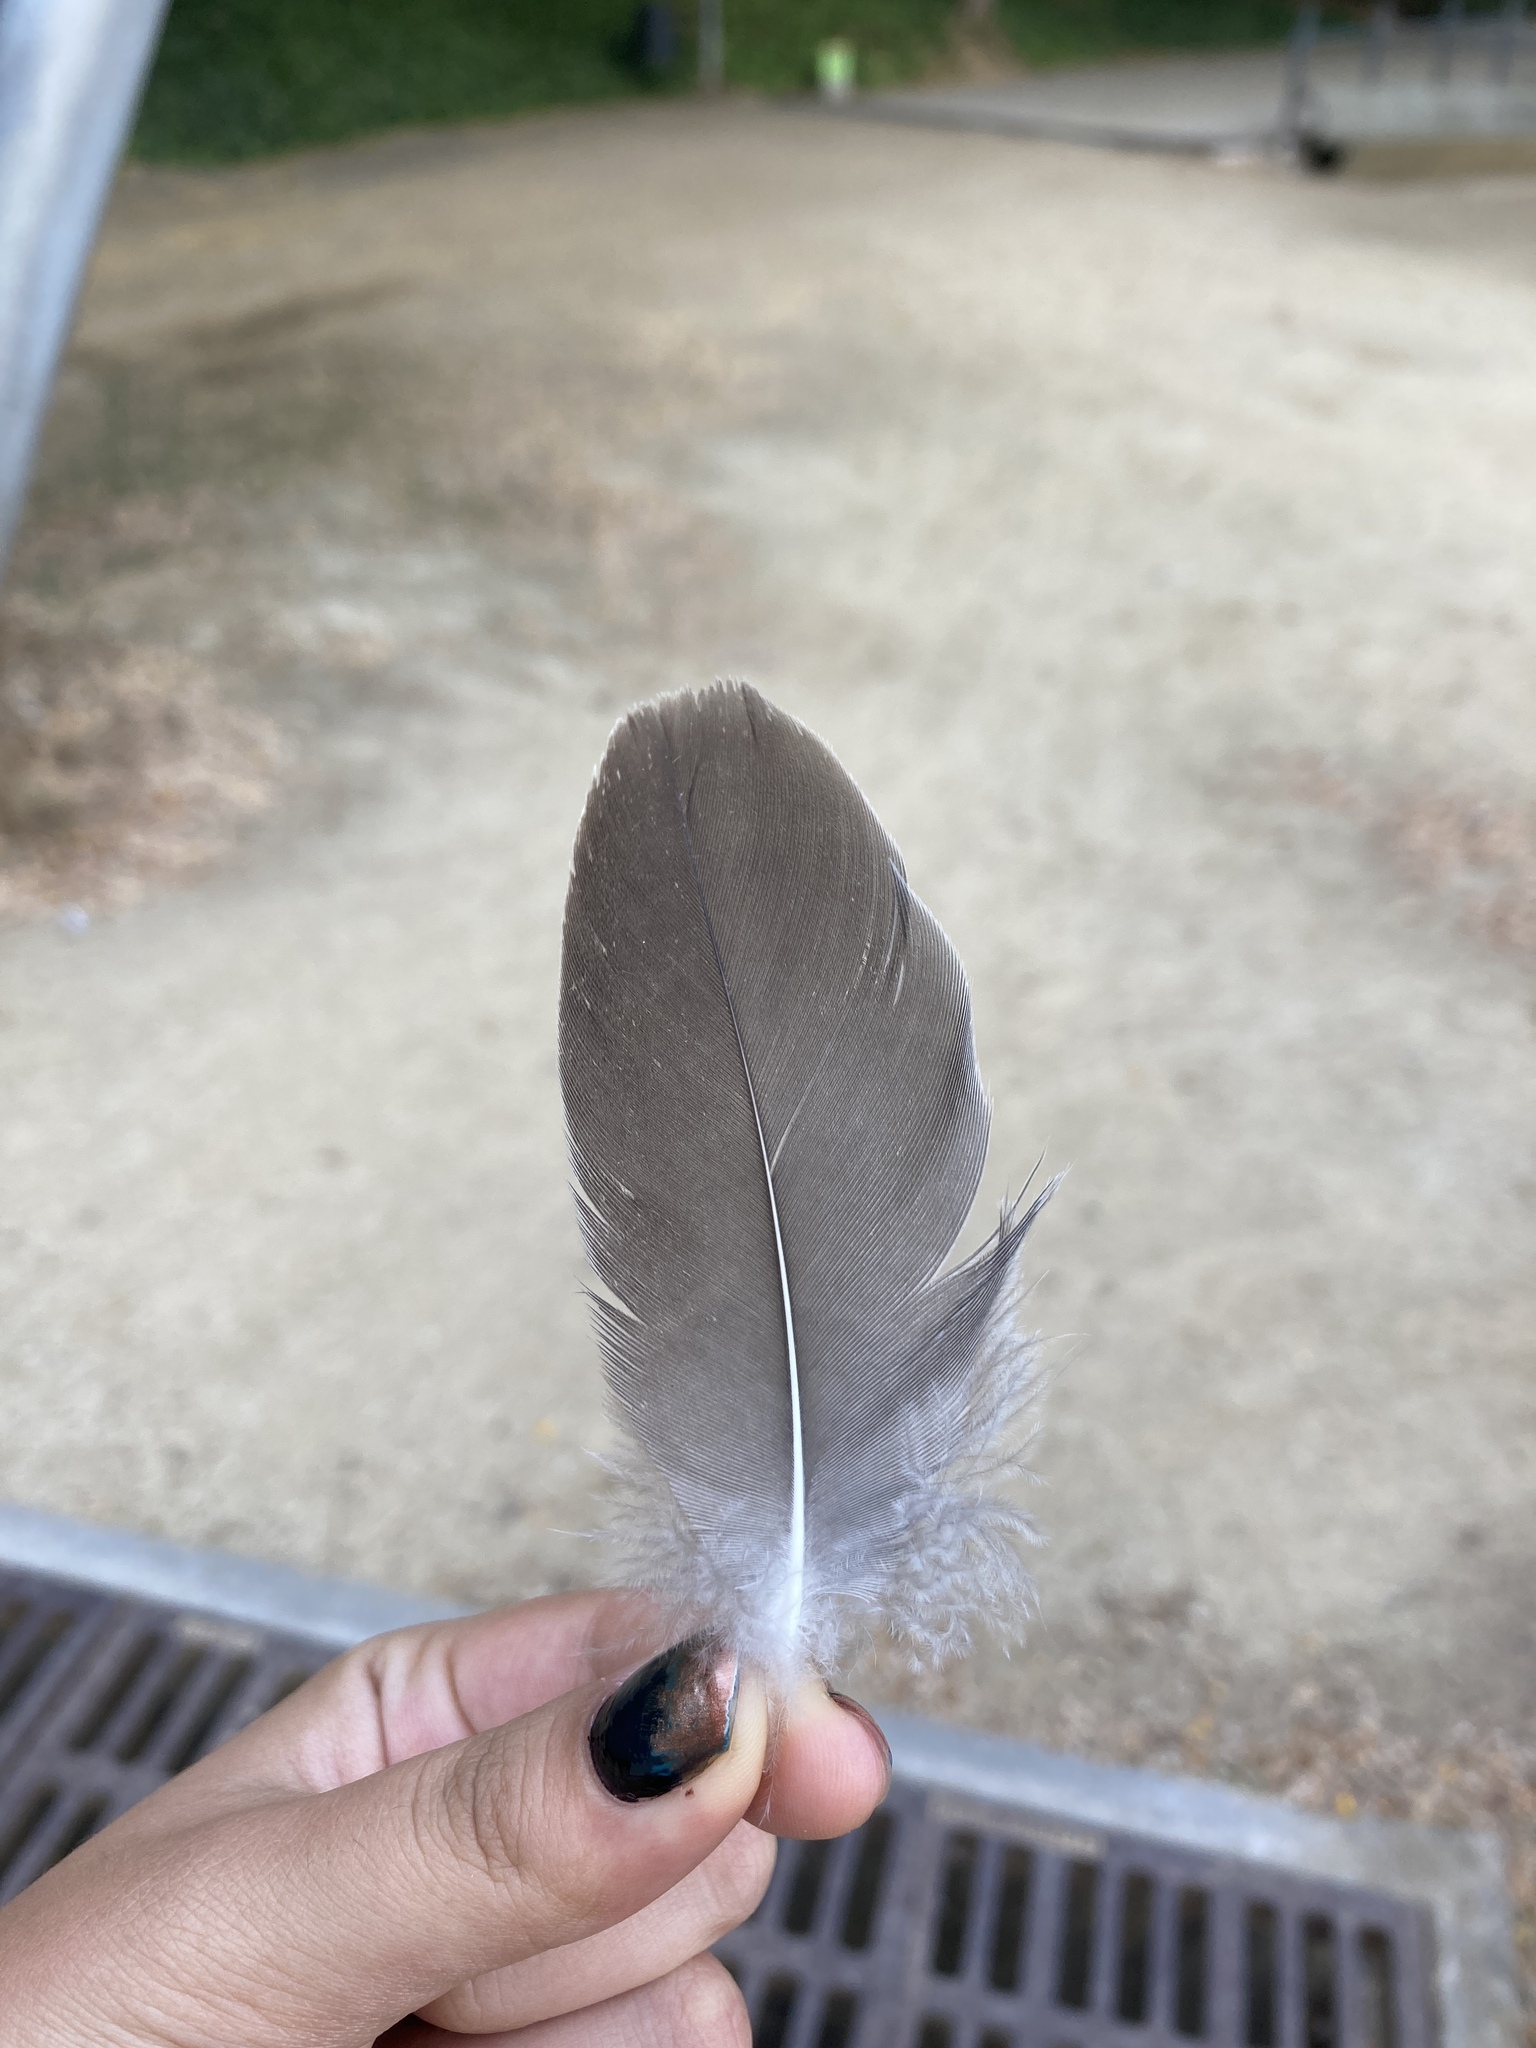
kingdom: Animalia
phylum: Chordata
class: Aves
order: Anseriformes
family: Anatidae
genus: Anser
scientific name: Anser anser
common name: Greylag goose
